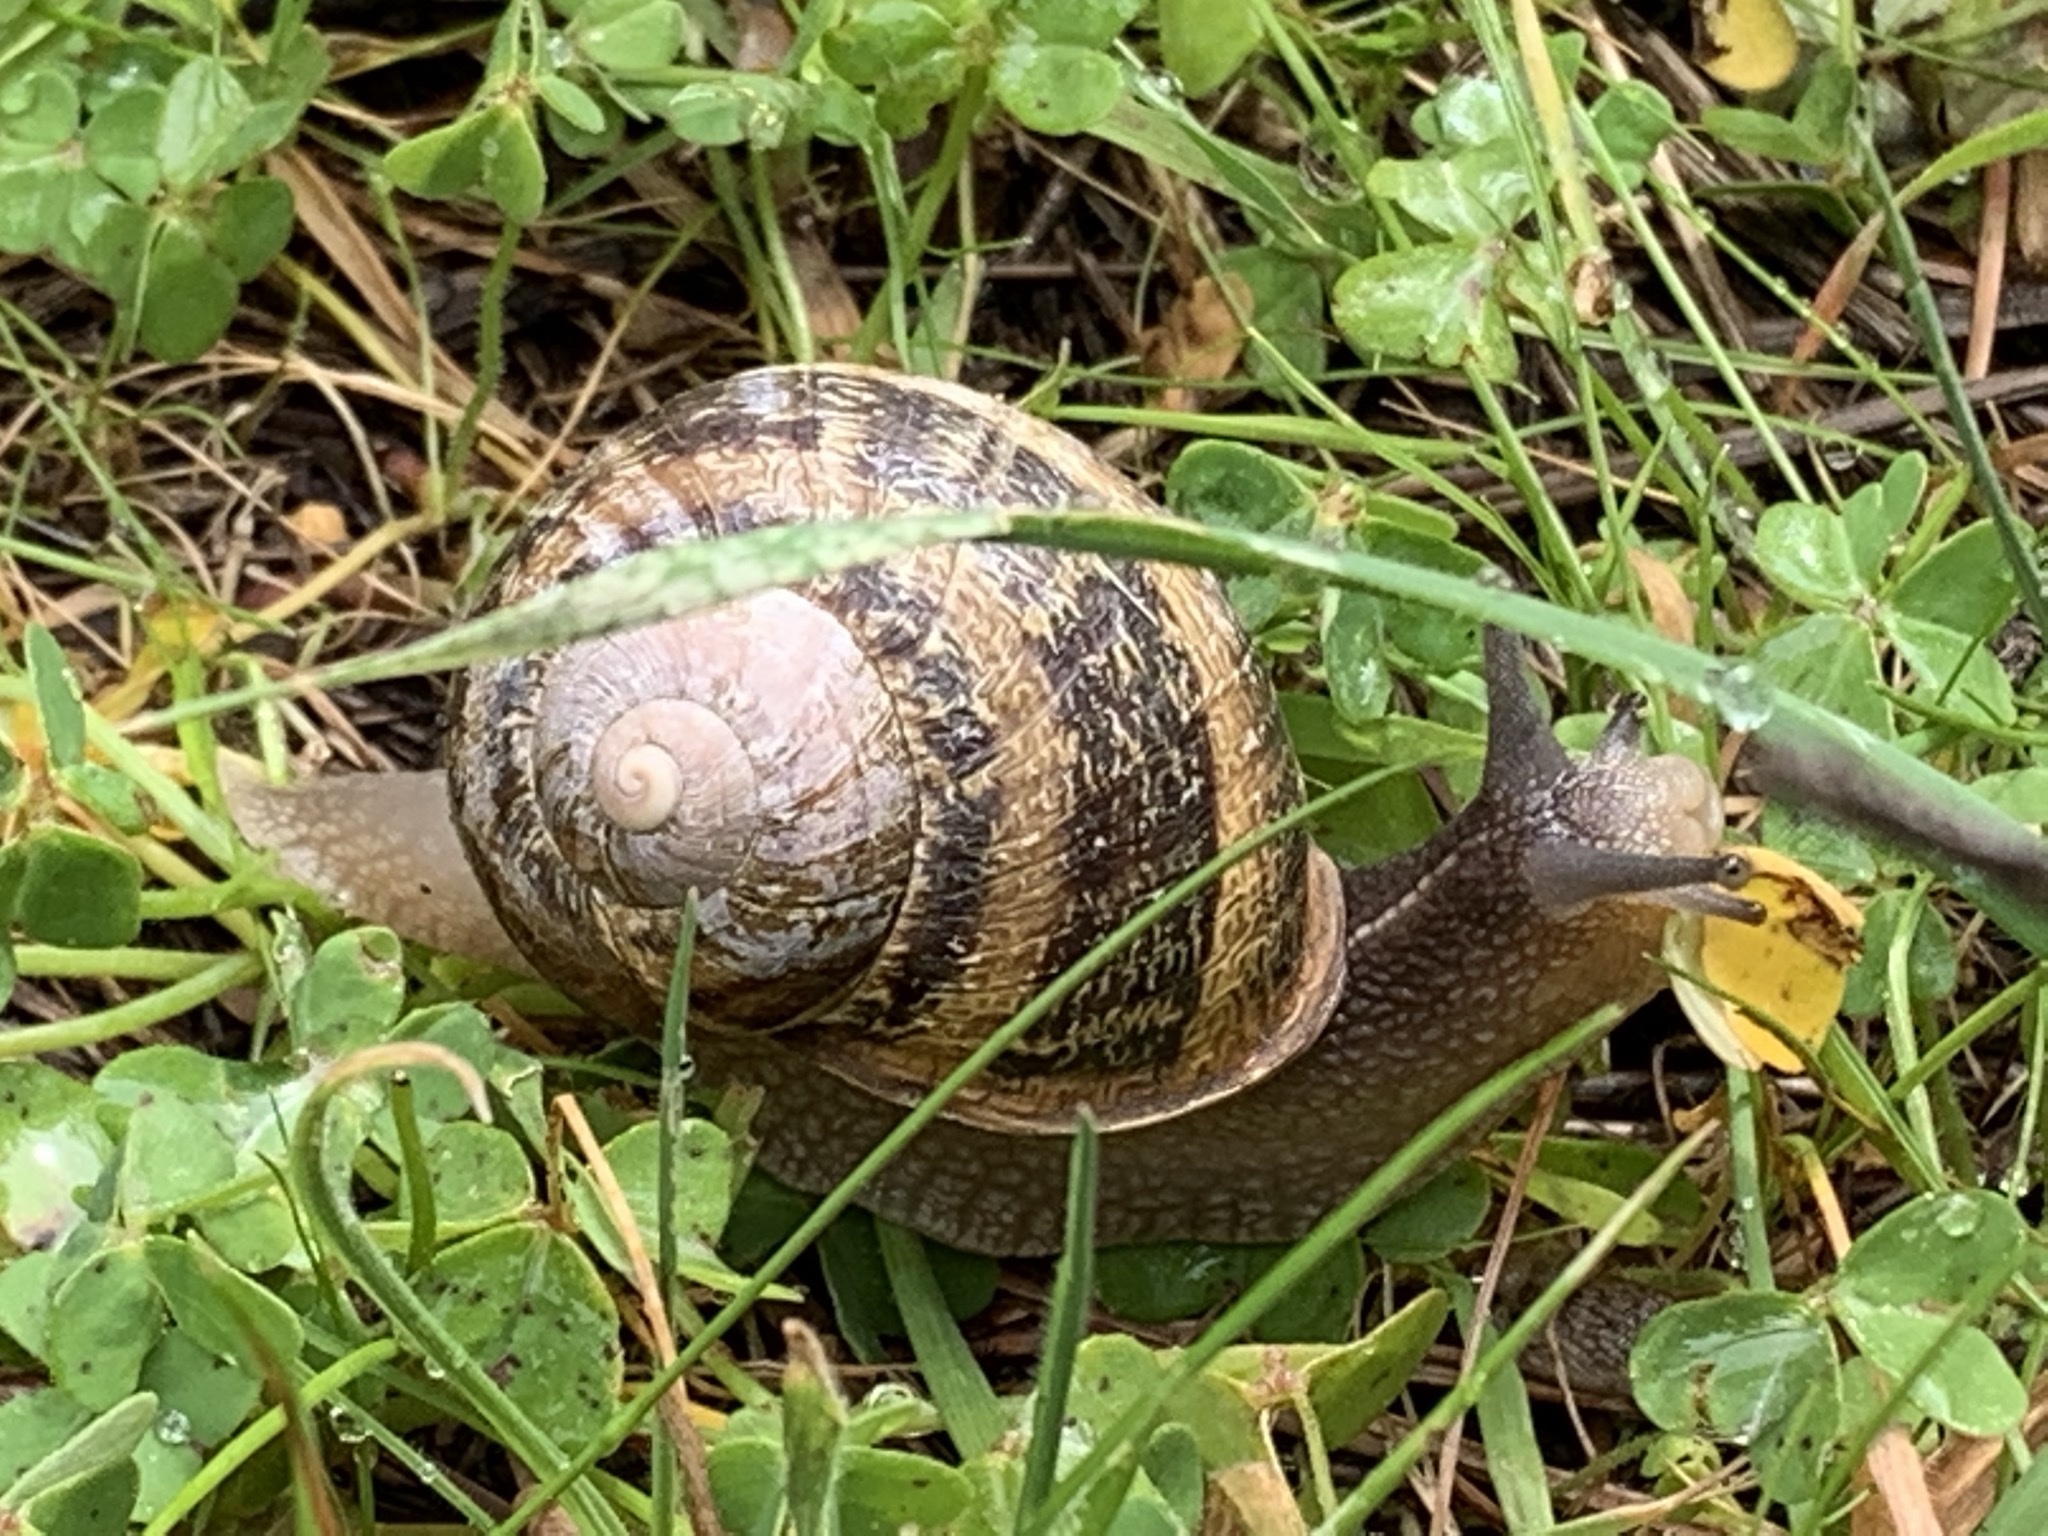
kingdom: Animalia
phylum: Mollusca
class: Gastropoda
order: Stylommatophora
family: Helicidae
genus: Cornu
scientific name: Cornu aspersum
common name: Brown garden snail
